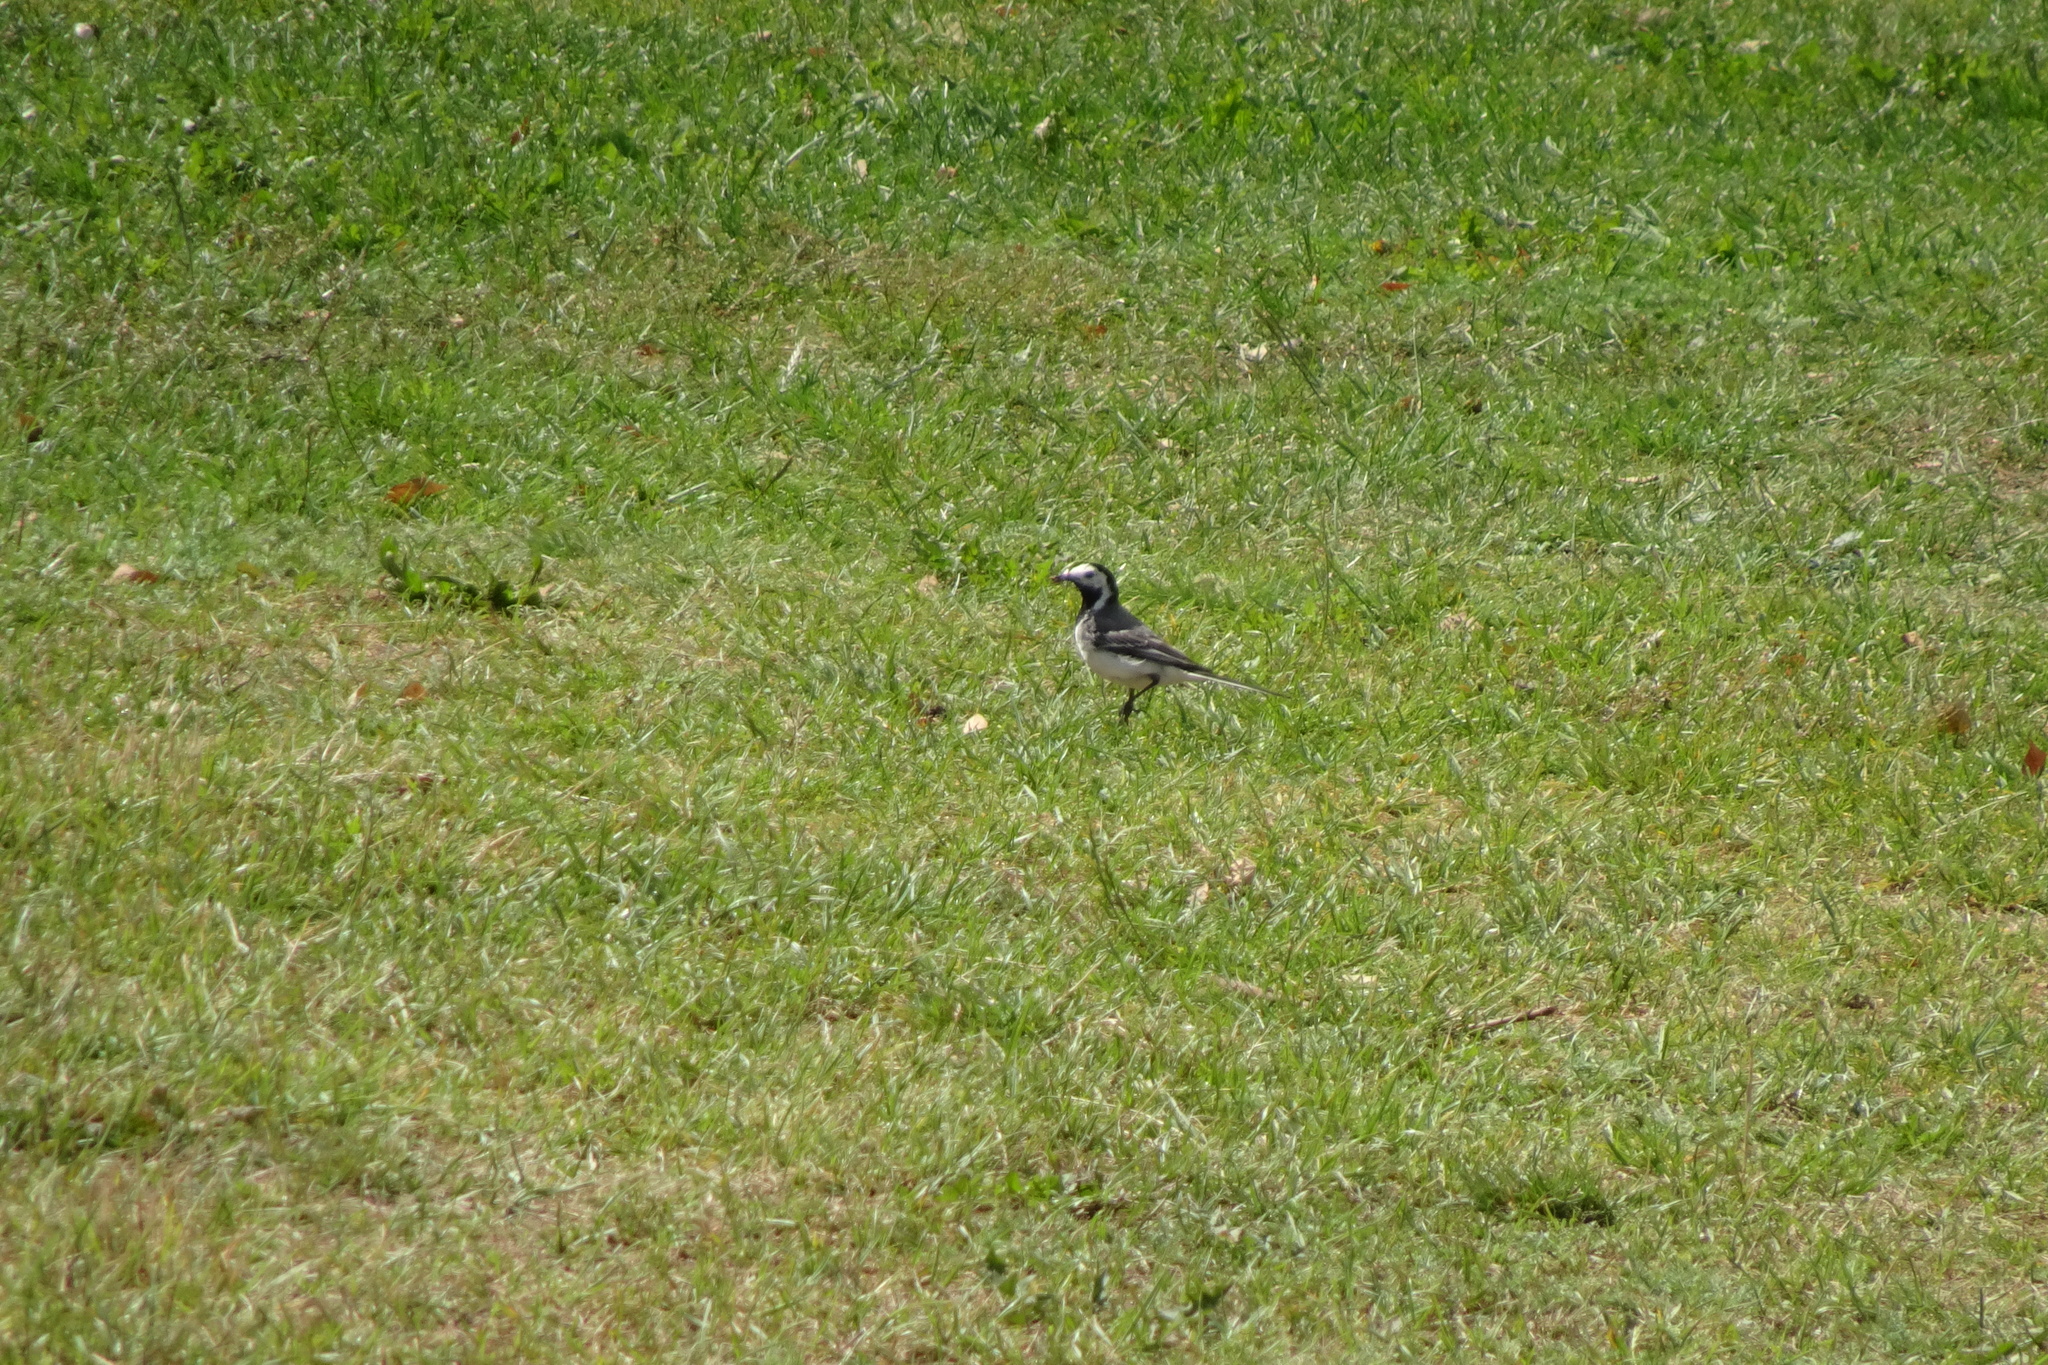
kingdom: Animalia
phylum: Chordata
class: Aves
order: Passeriformes
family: Motacillidae
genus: Motacilla
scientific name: Motacilla alba
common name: White wagtail
